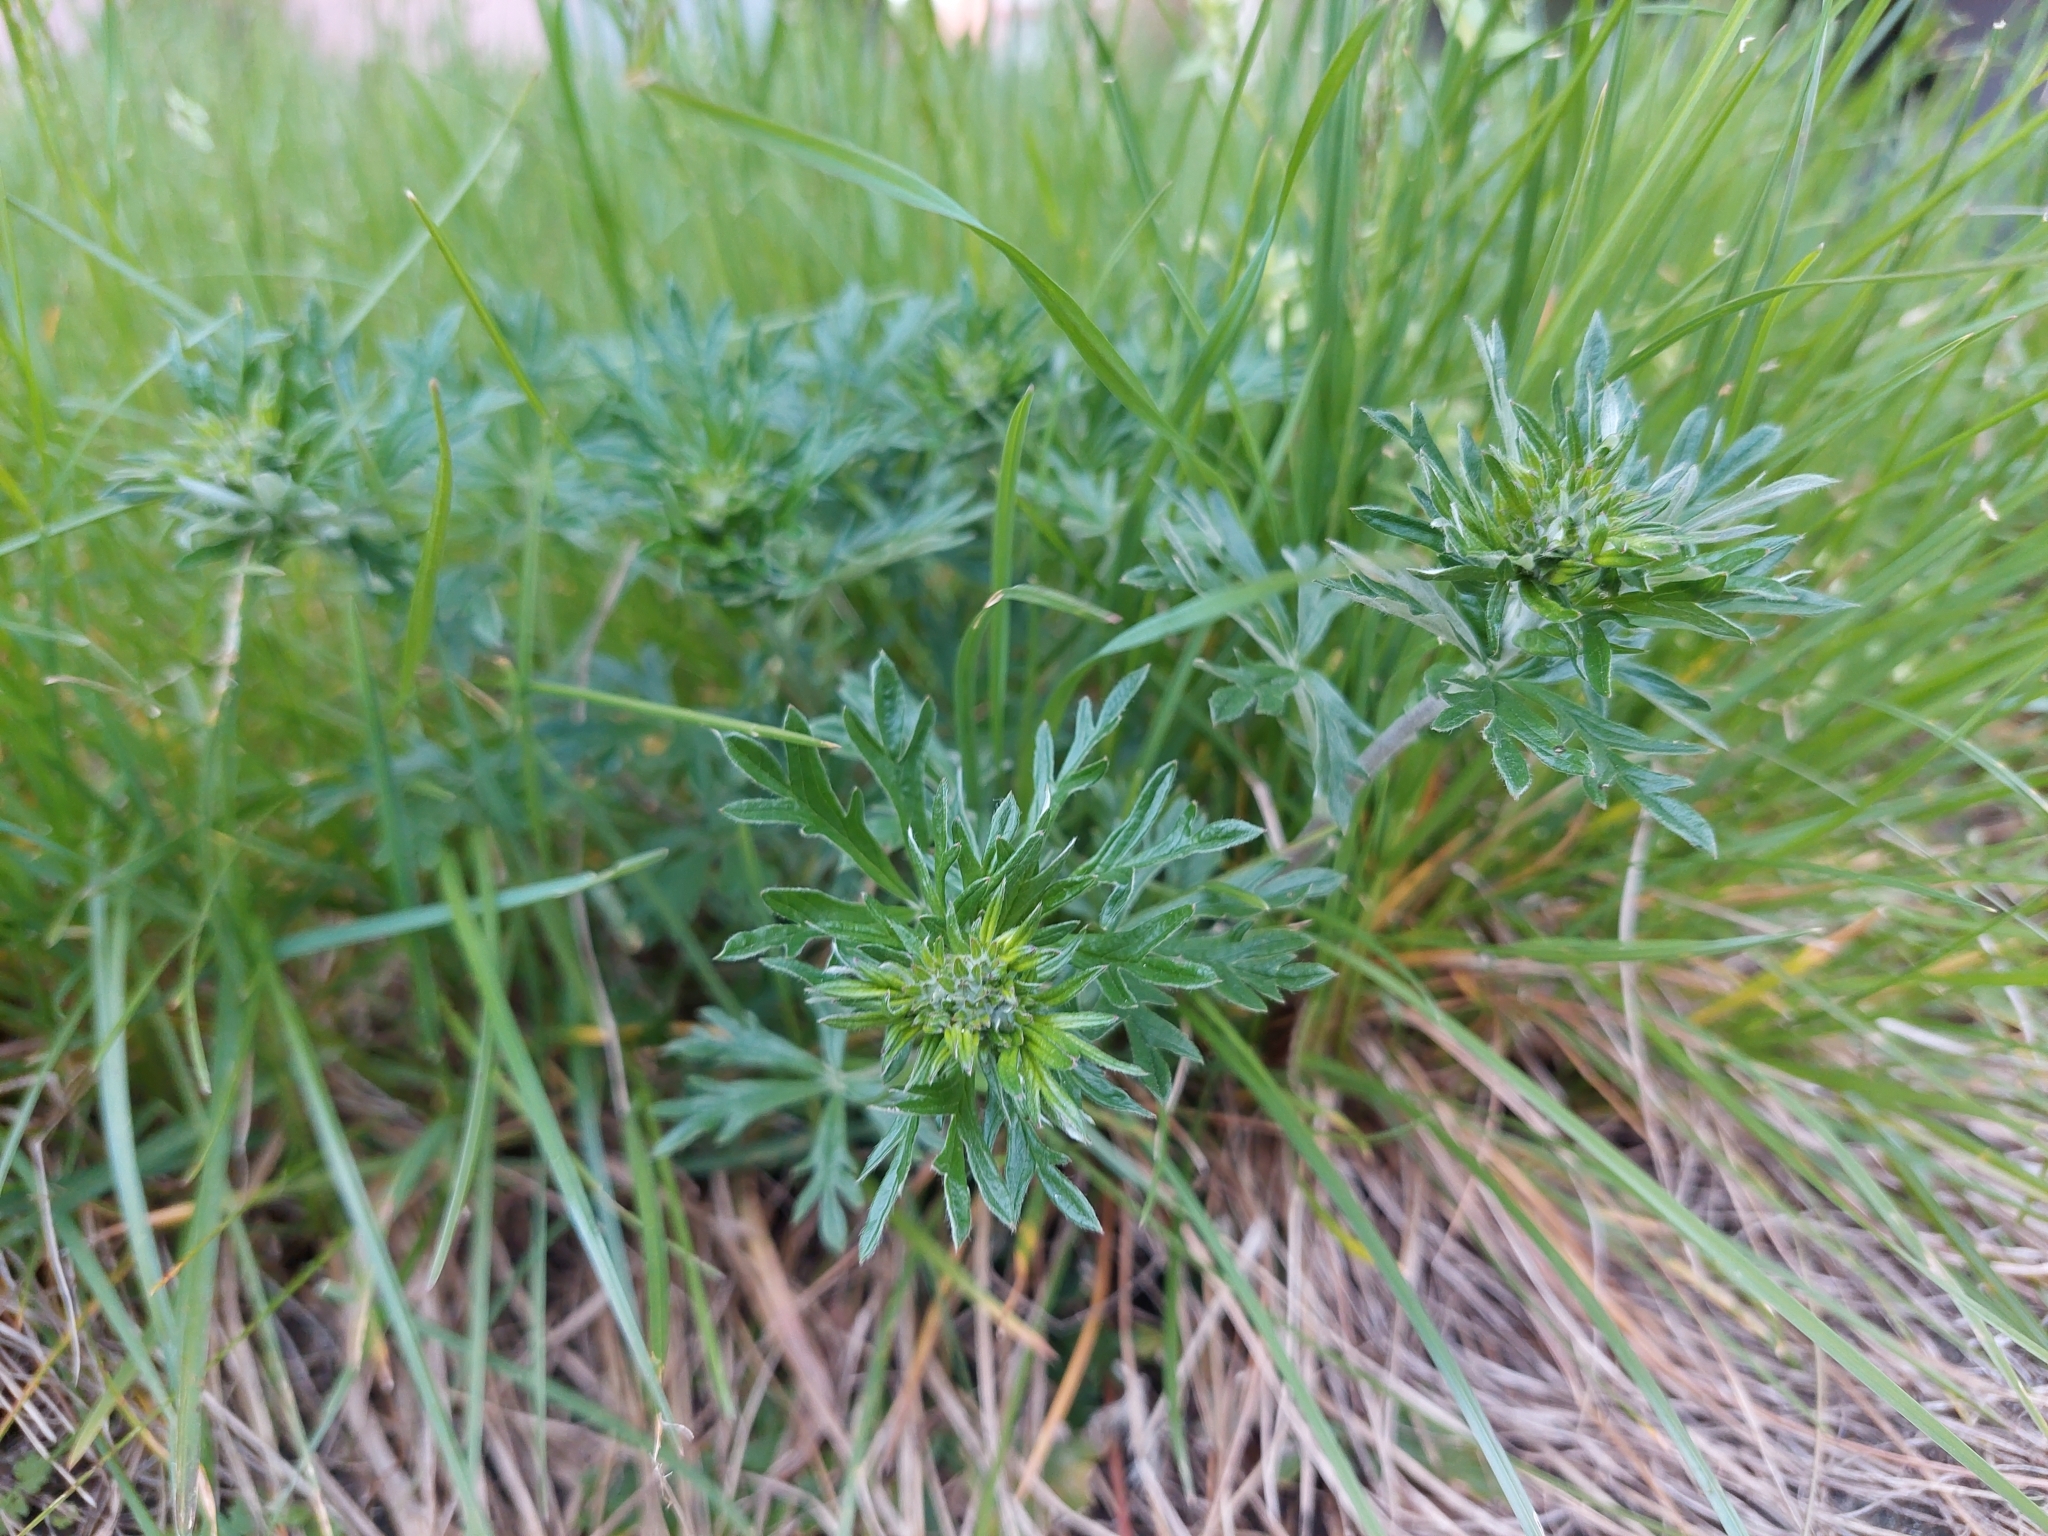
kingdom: Plantae
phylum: Tracheophyta
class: Magnoliopsida
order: Rosales
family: Rosaceae
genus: Potentilla
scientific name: Potentilla argentea
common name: Hoary cinquefoil
